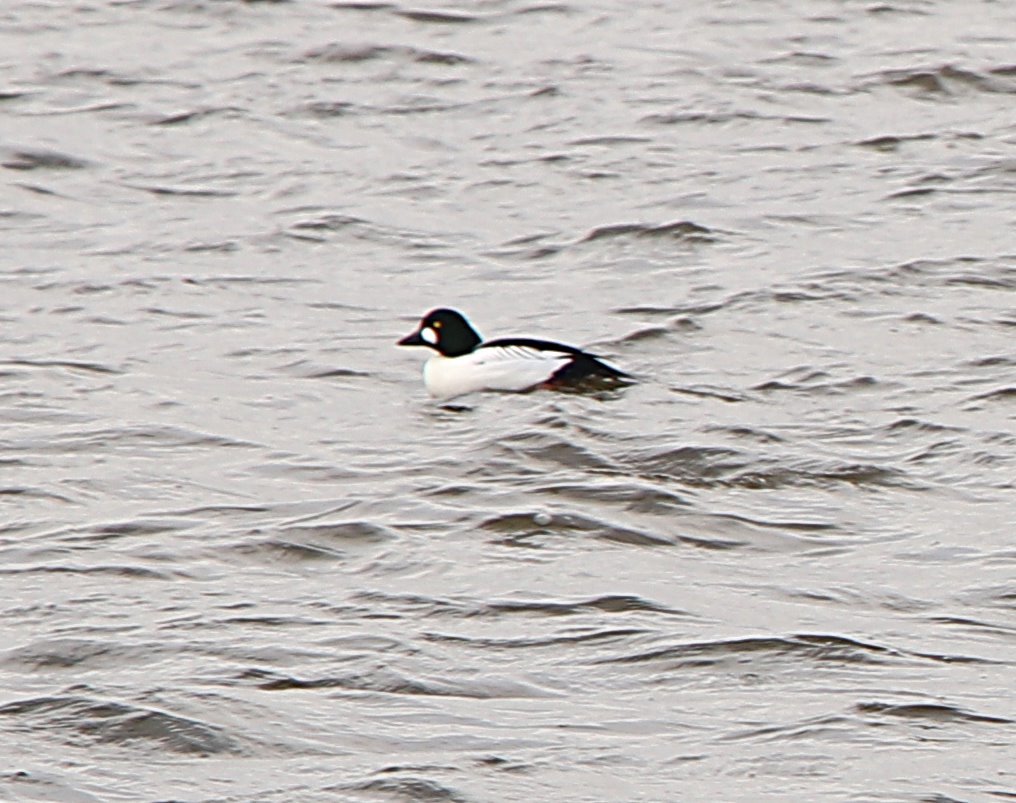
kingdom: Animalia
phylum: Chordata
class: Aves
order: Anseriformes
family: Anatidae
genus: Bucephala
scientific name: Bucephala clangula
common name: Common goldeneye
